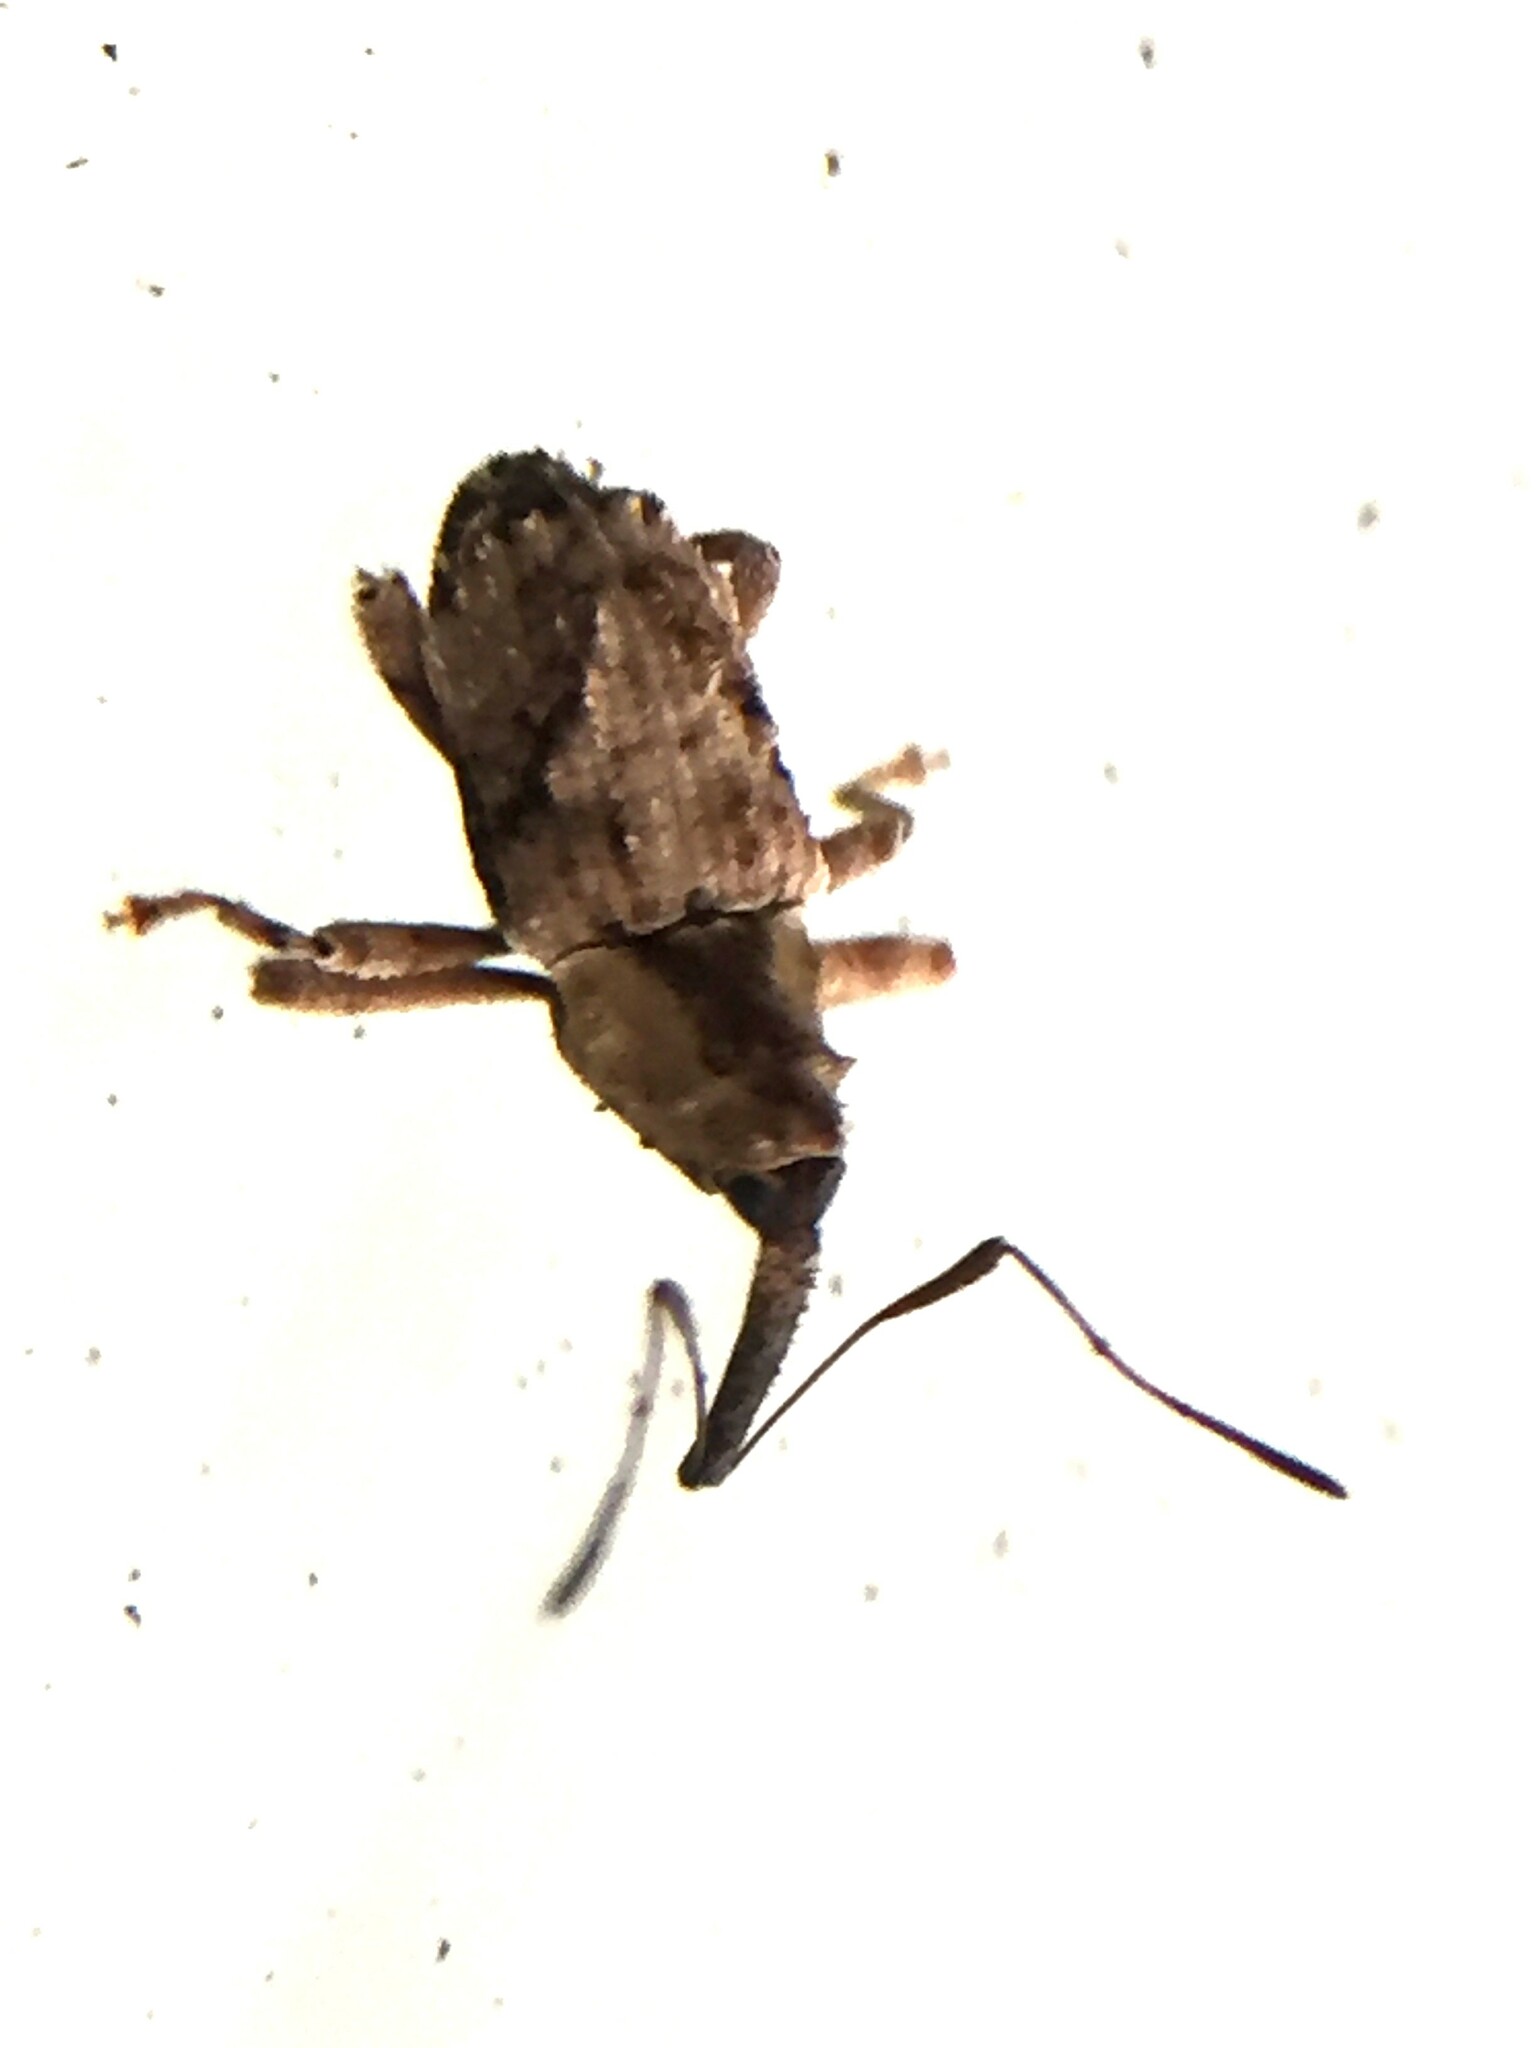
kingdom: Animalia
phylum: Arthropoda
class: Insecta
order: Coleoptera
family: Curculionidae
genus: Mecistostylus
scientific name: Mecistostylus douei
